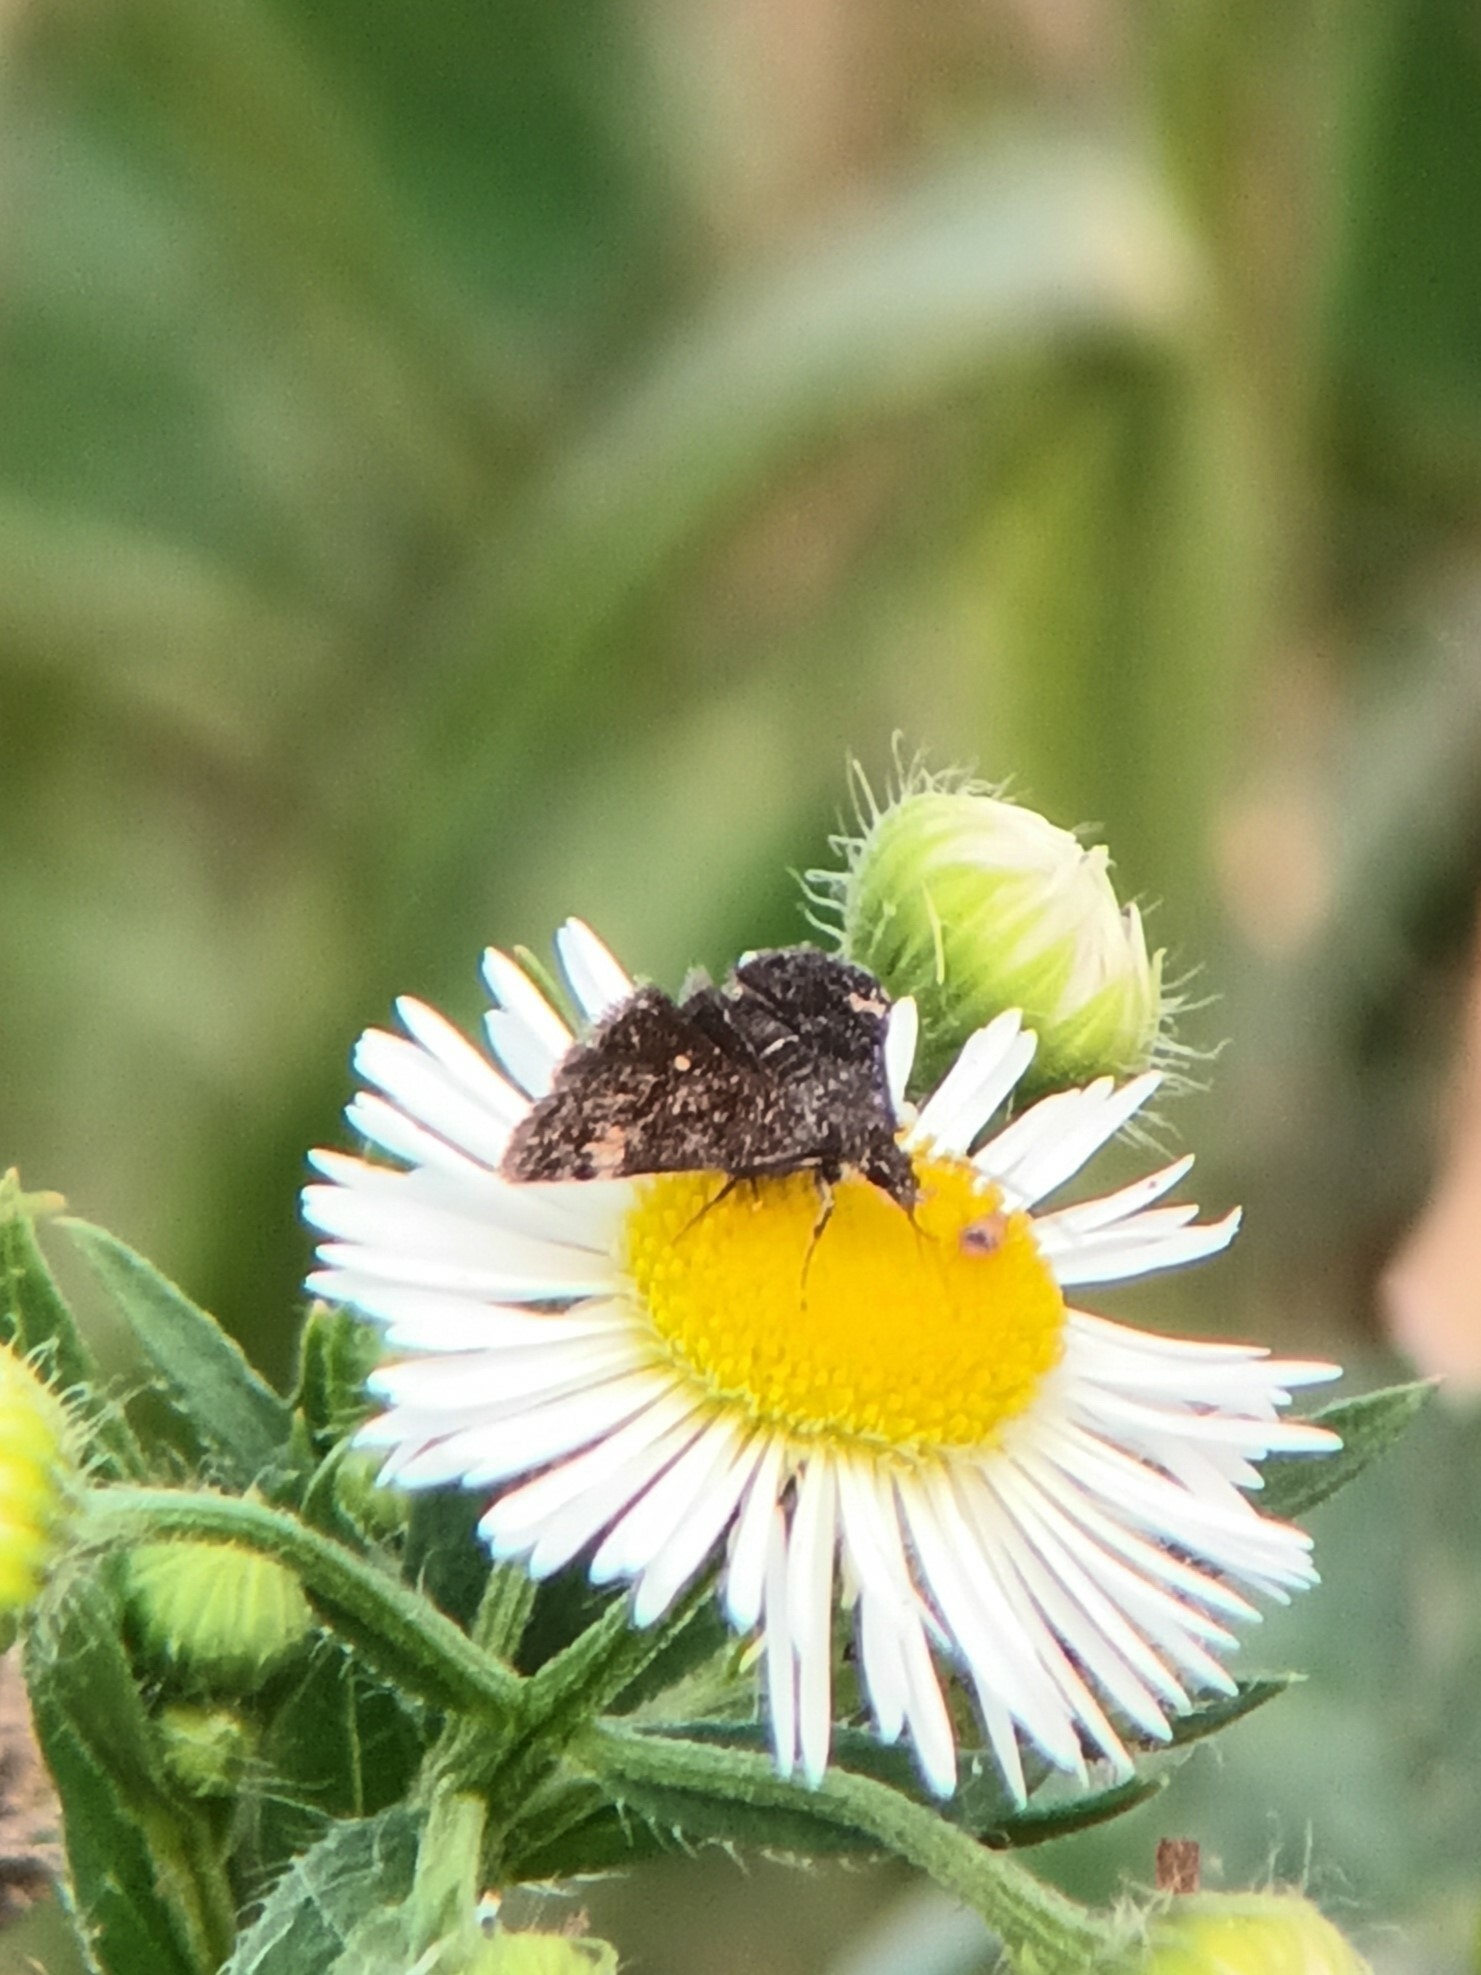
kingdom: Animalia
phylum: Arthropoda
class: Insecta
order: Lepidoptera
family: Crambidae
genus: Heliothela
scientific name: Heliothela wulfeniana
